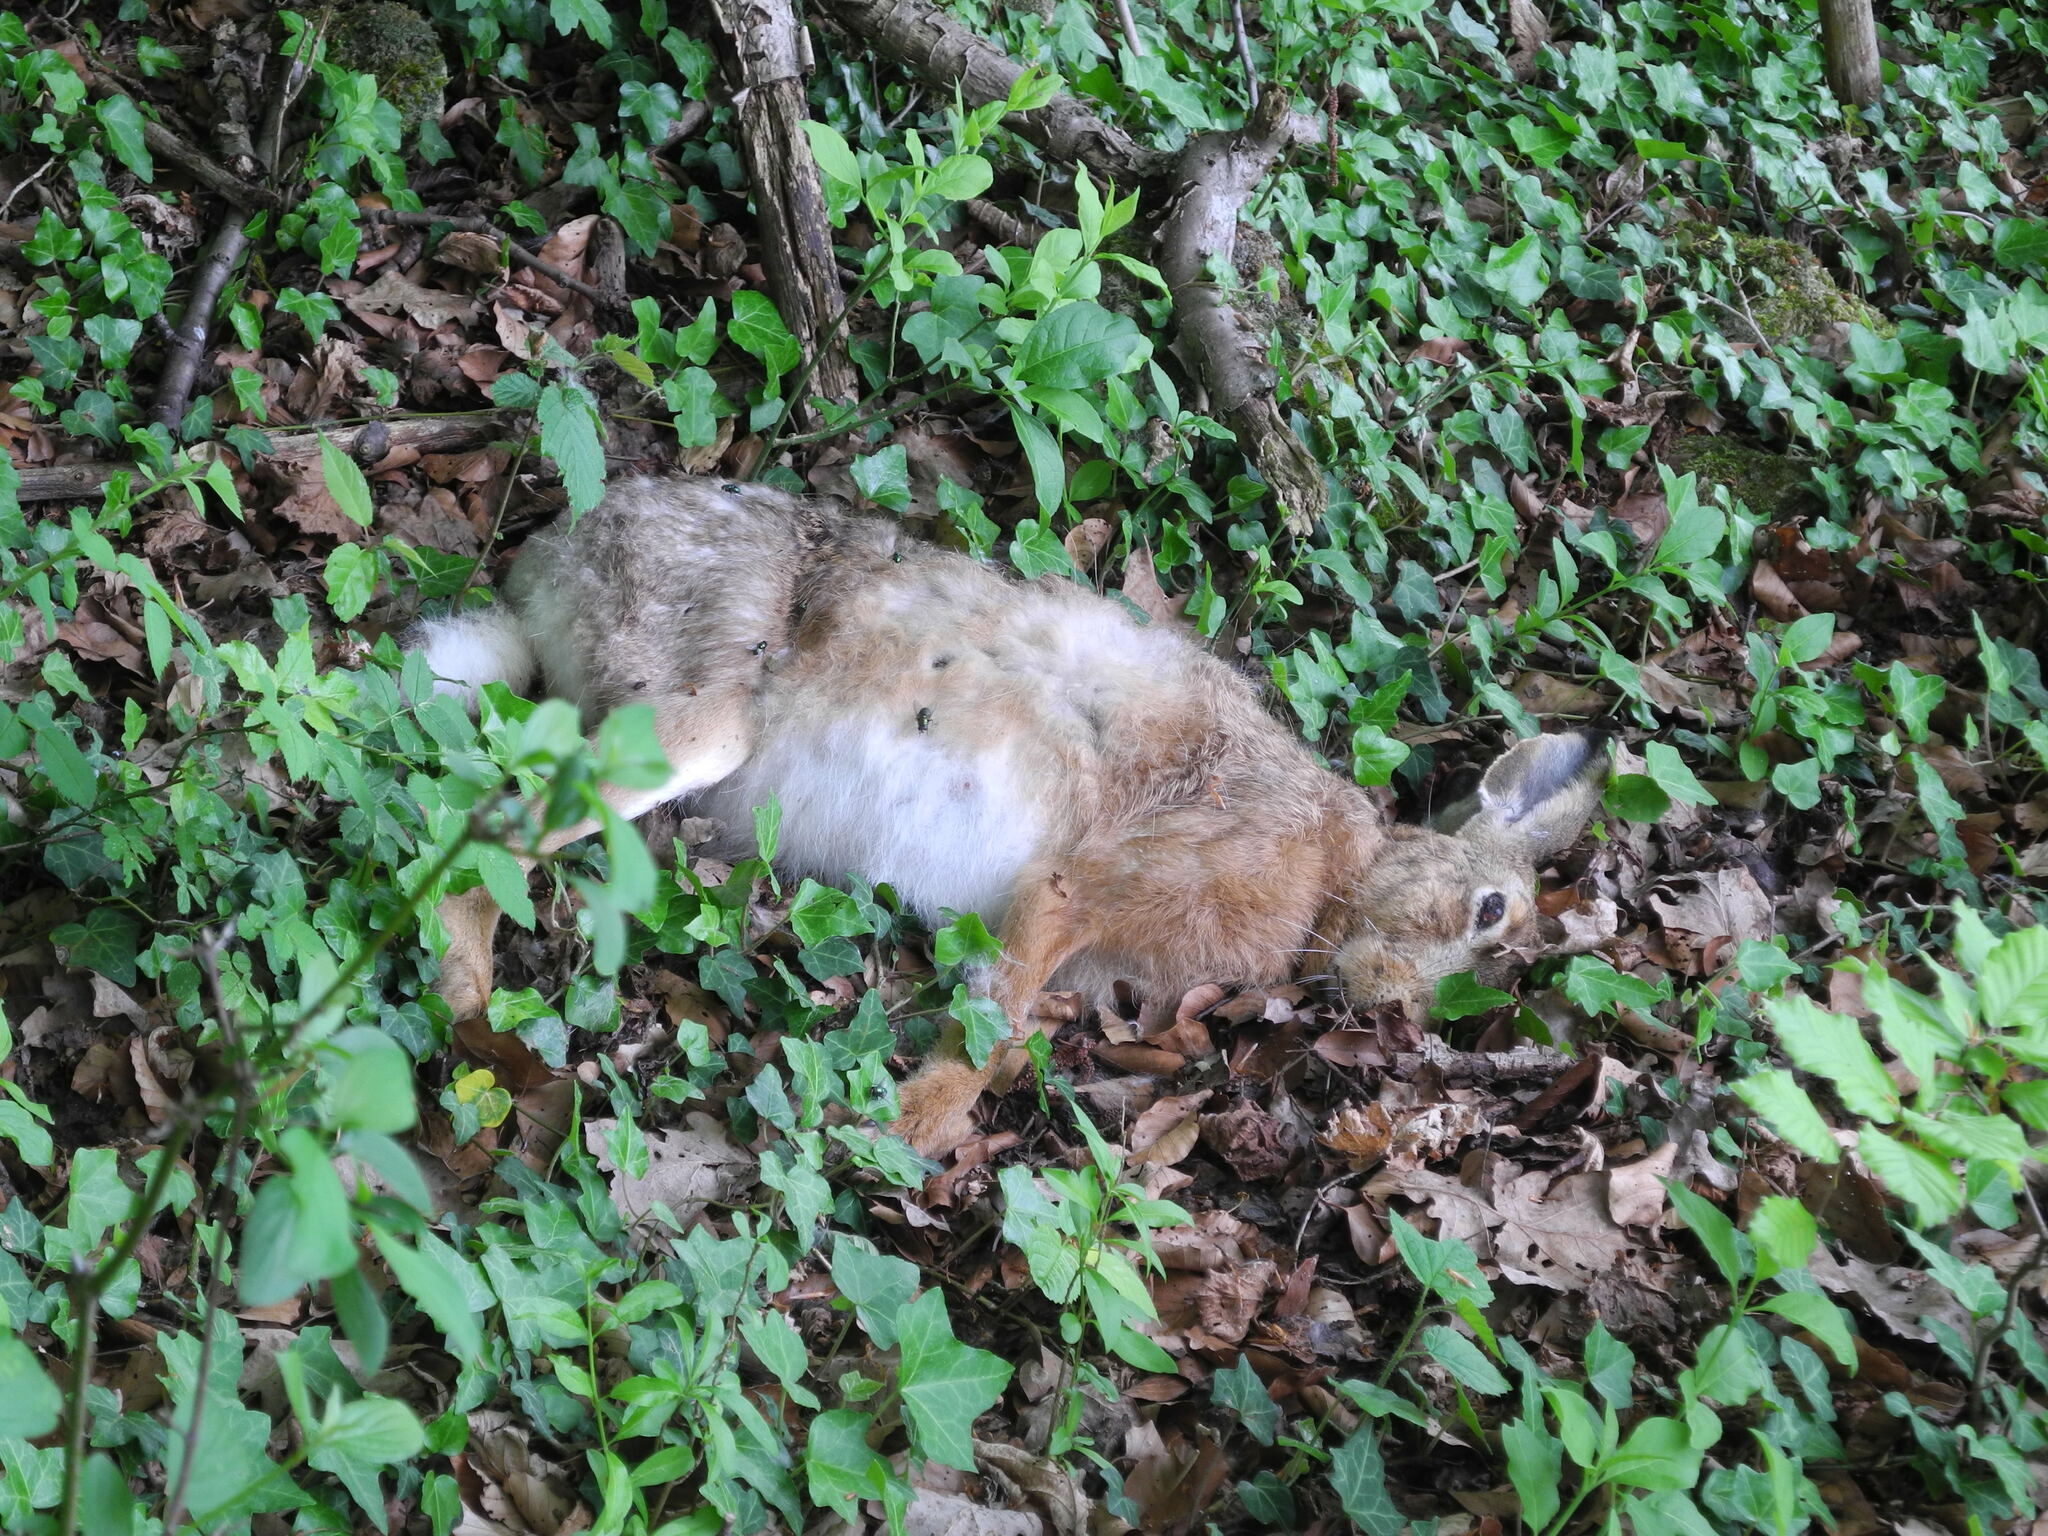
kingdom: Animalia
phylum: Chordata
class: Mammalia
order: Lagomorpha
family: Leporidae
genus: Lepus
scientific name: Lepus europaeus
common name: European hare
